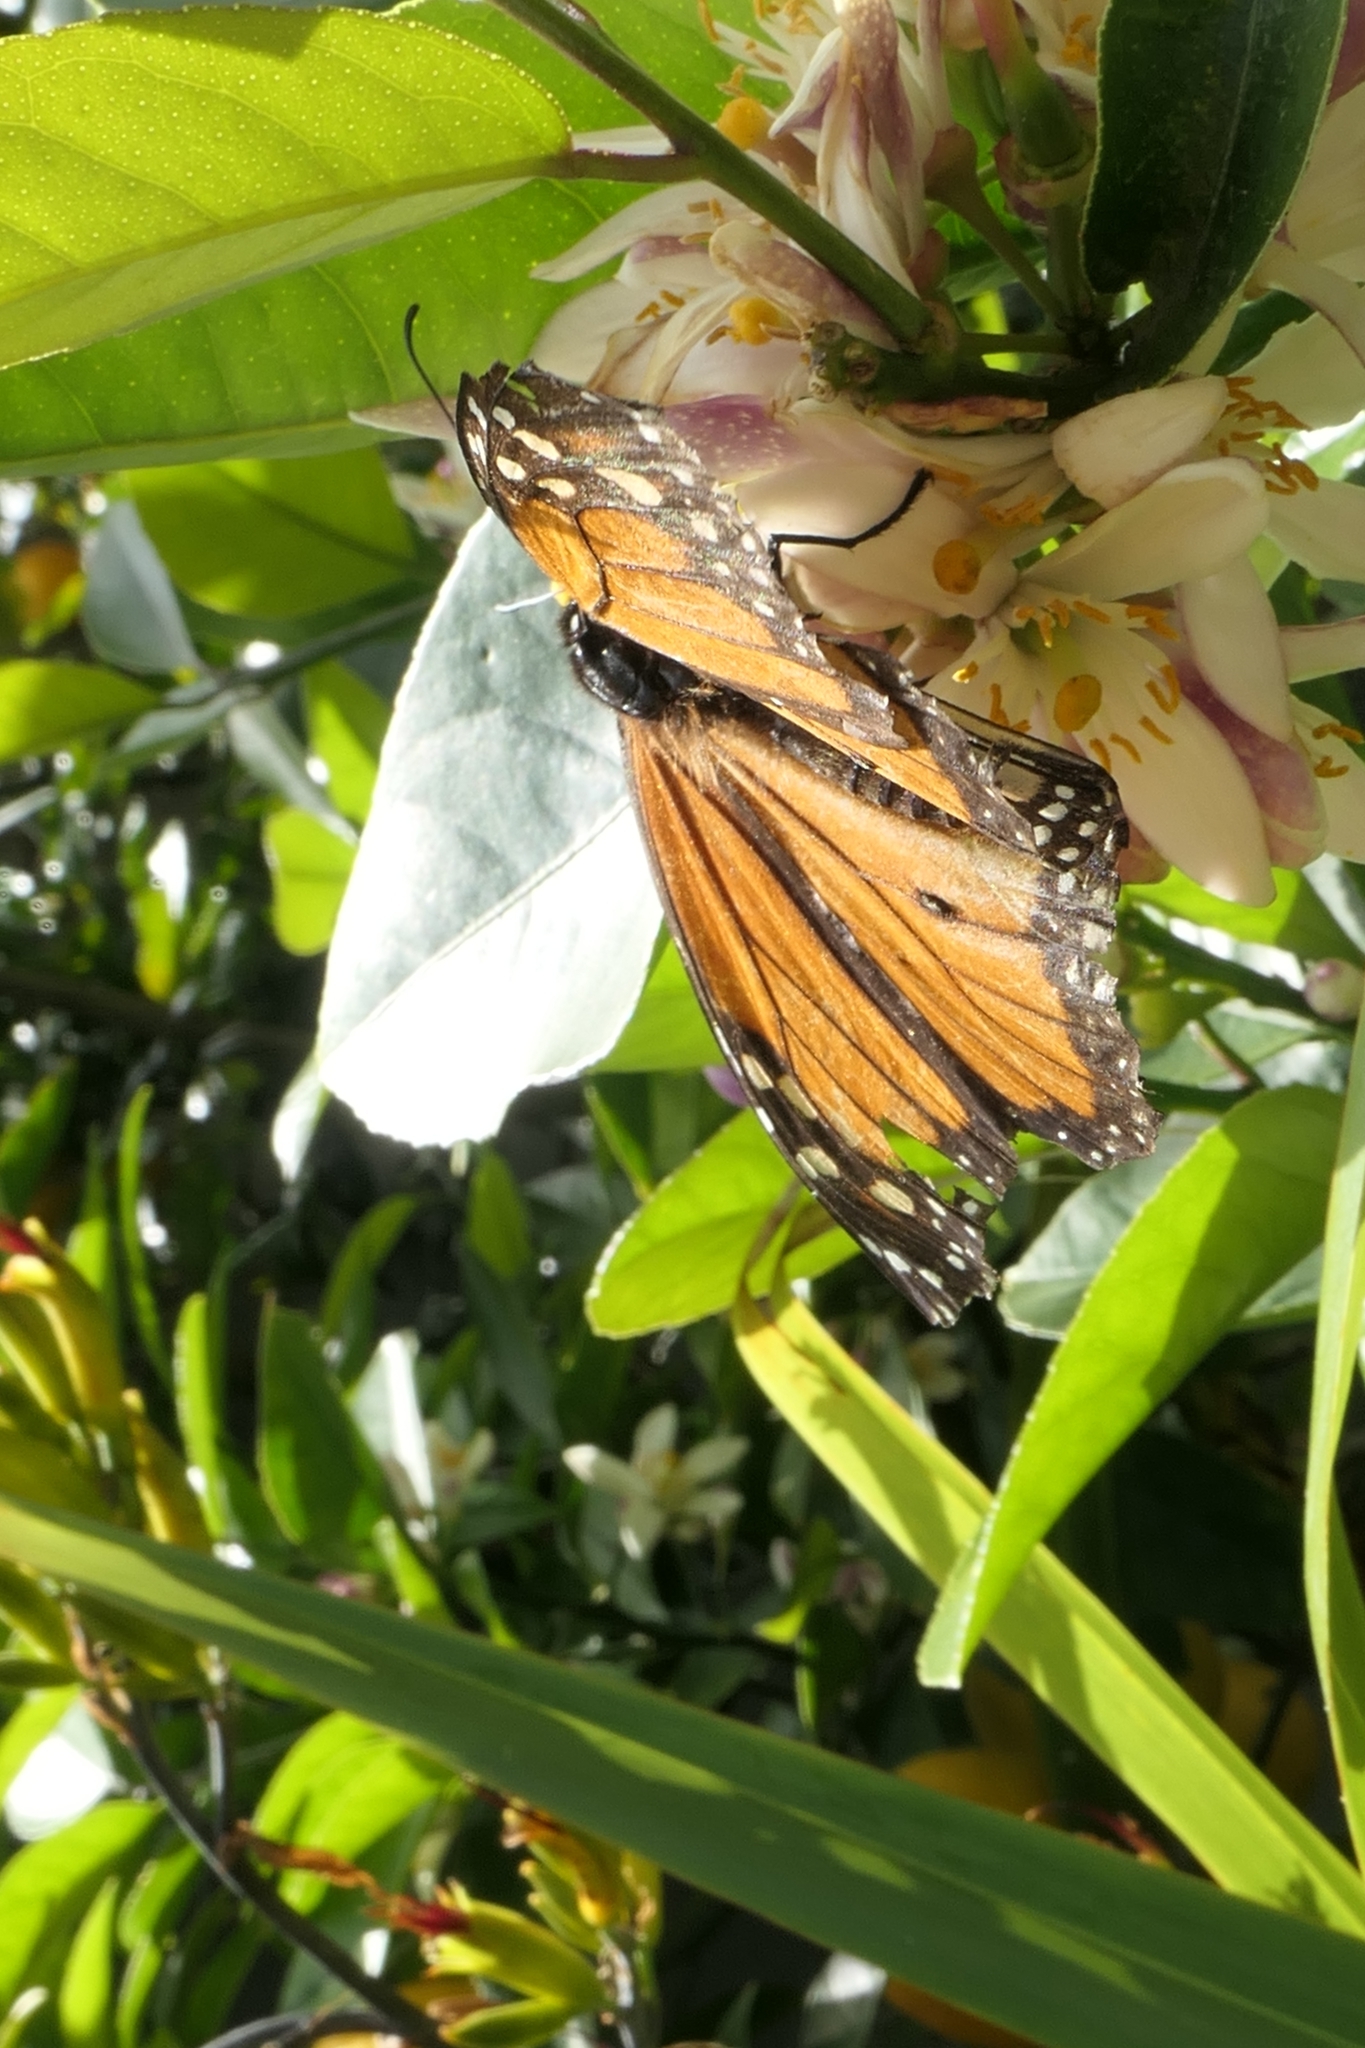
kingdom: Animalia
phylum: Arthropoda
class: Insecta
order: Lepidoptera
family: Nymphalidae
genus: Danaus
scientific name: Danaus plexippus
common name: Monarch
